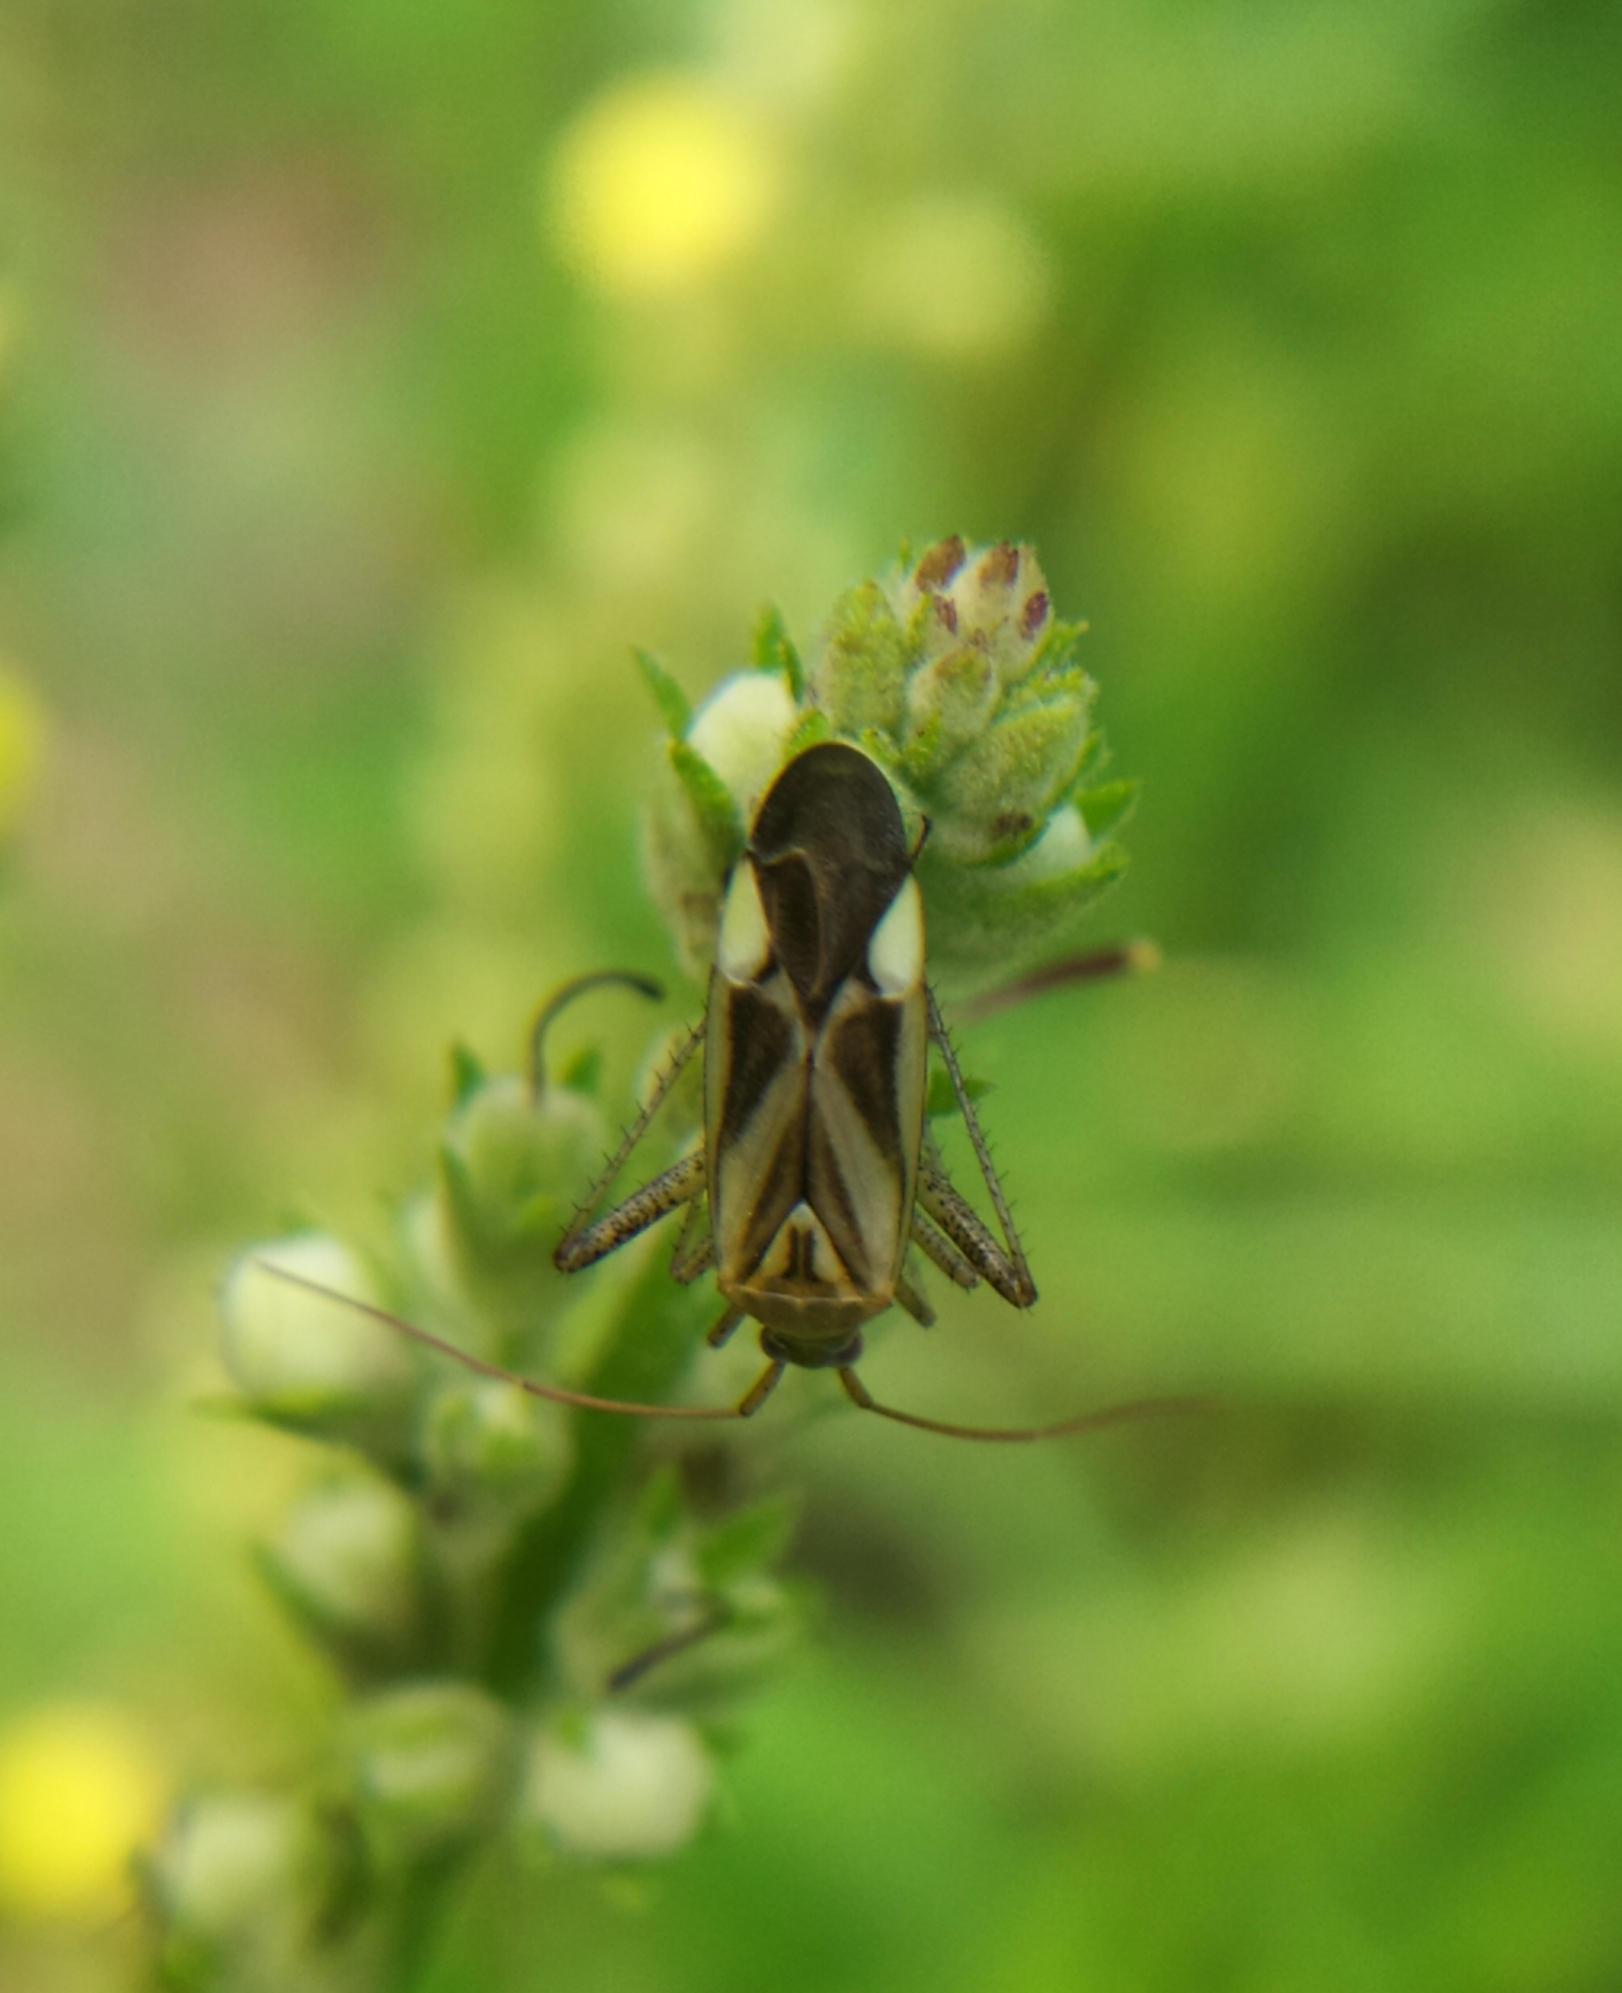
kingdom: Animalia
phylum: Arthropoda
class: Insecta
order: Hemiptera
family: Miridae
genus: Adelphocoris
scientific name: Adelphocoris lineolatus
